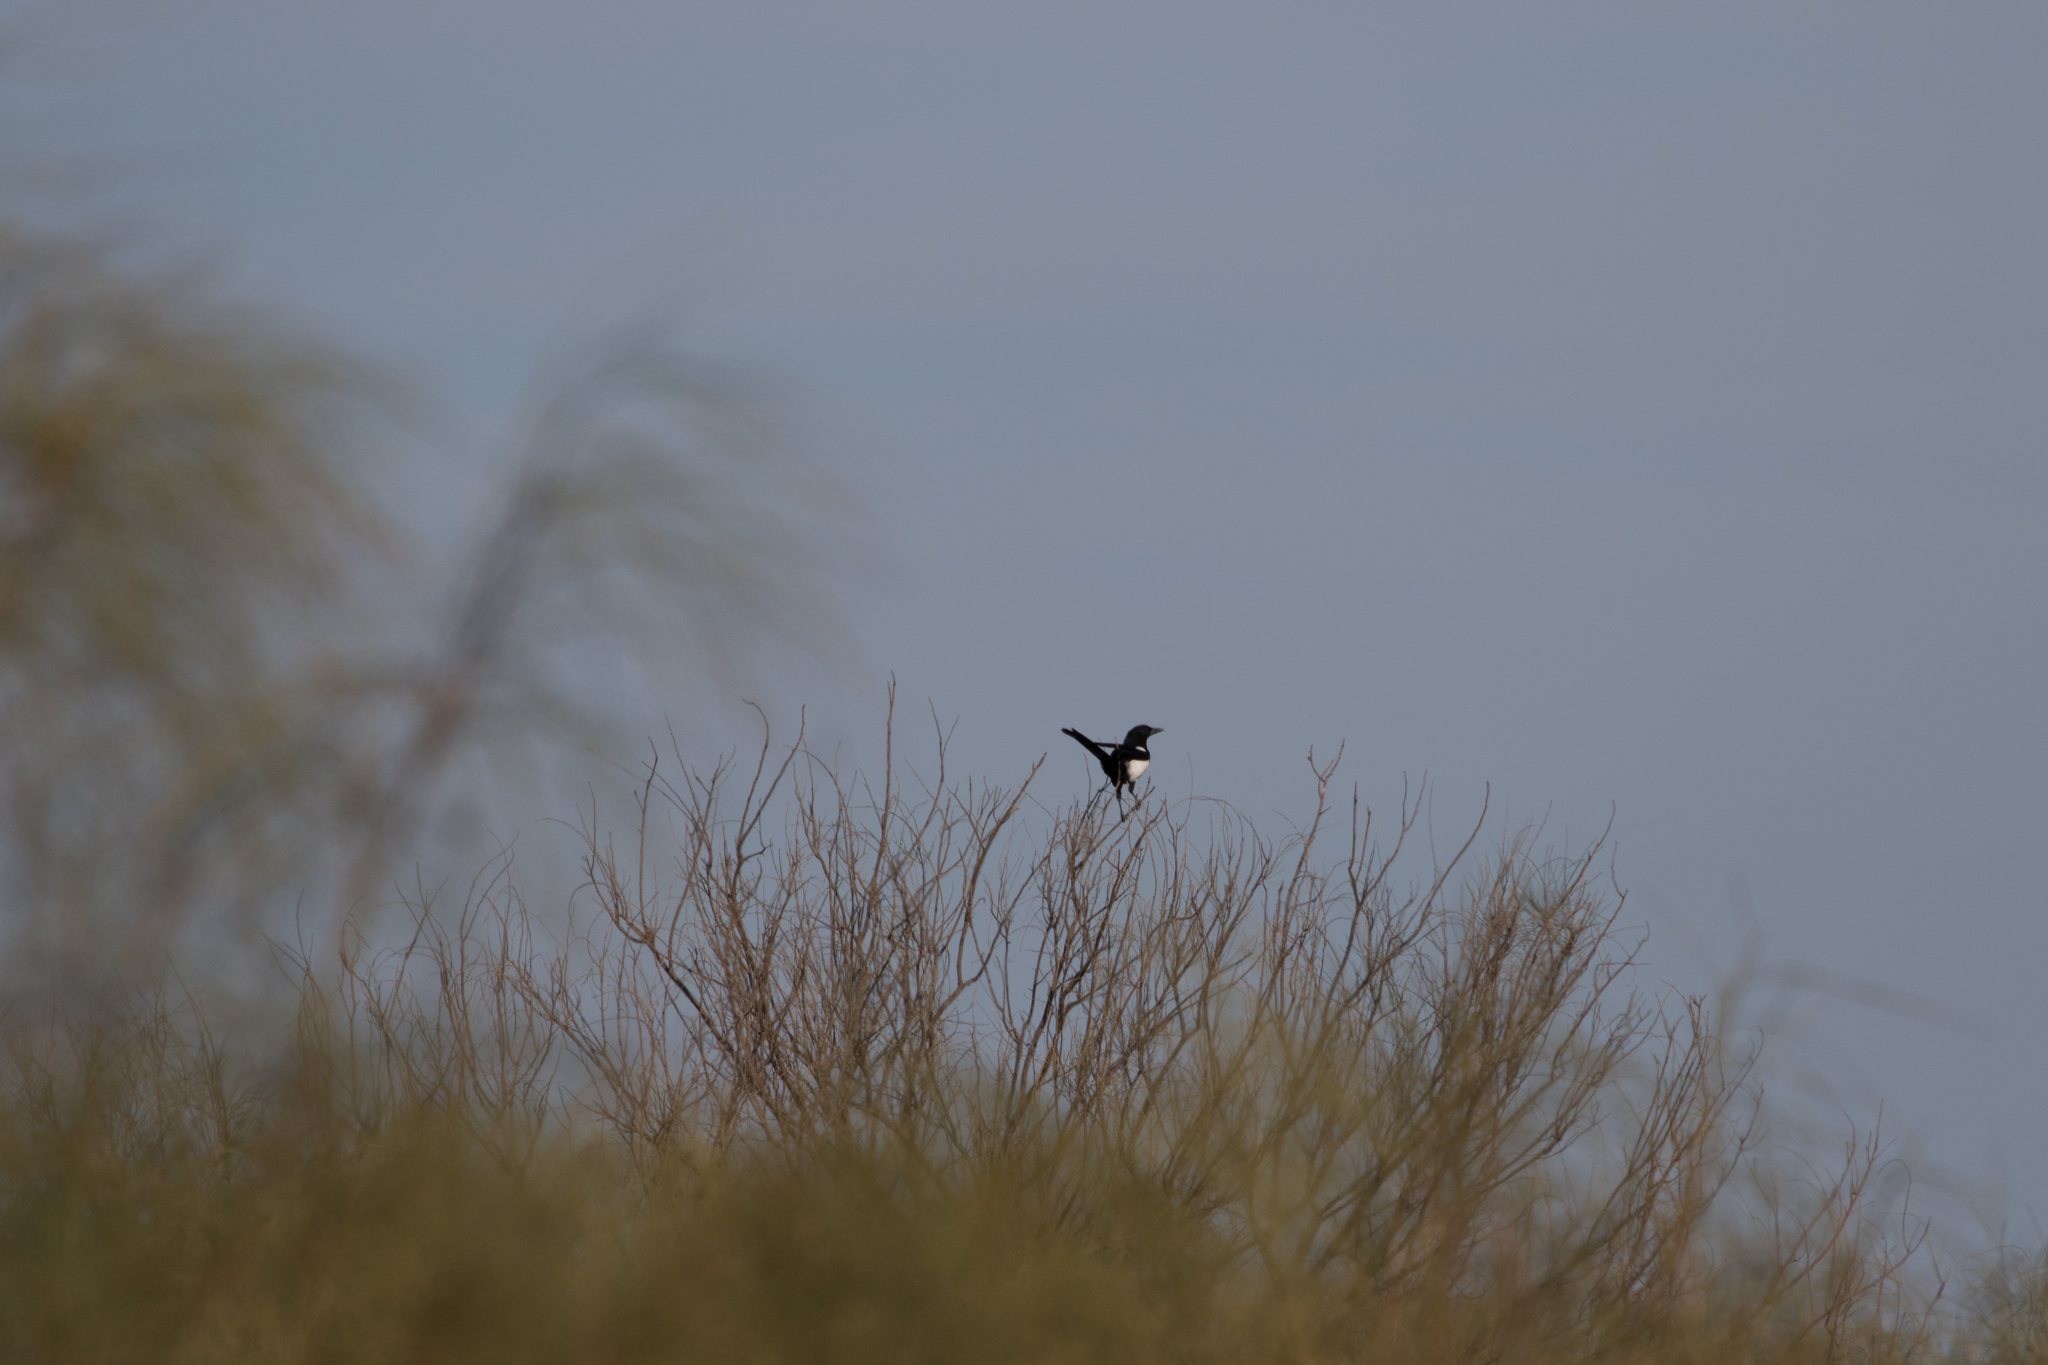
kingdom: Animalia
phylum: Chordata
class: Aves
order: Passeriformes
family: Corvidae
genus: Pica
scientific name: Pica pica
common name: Eurasian magpie
